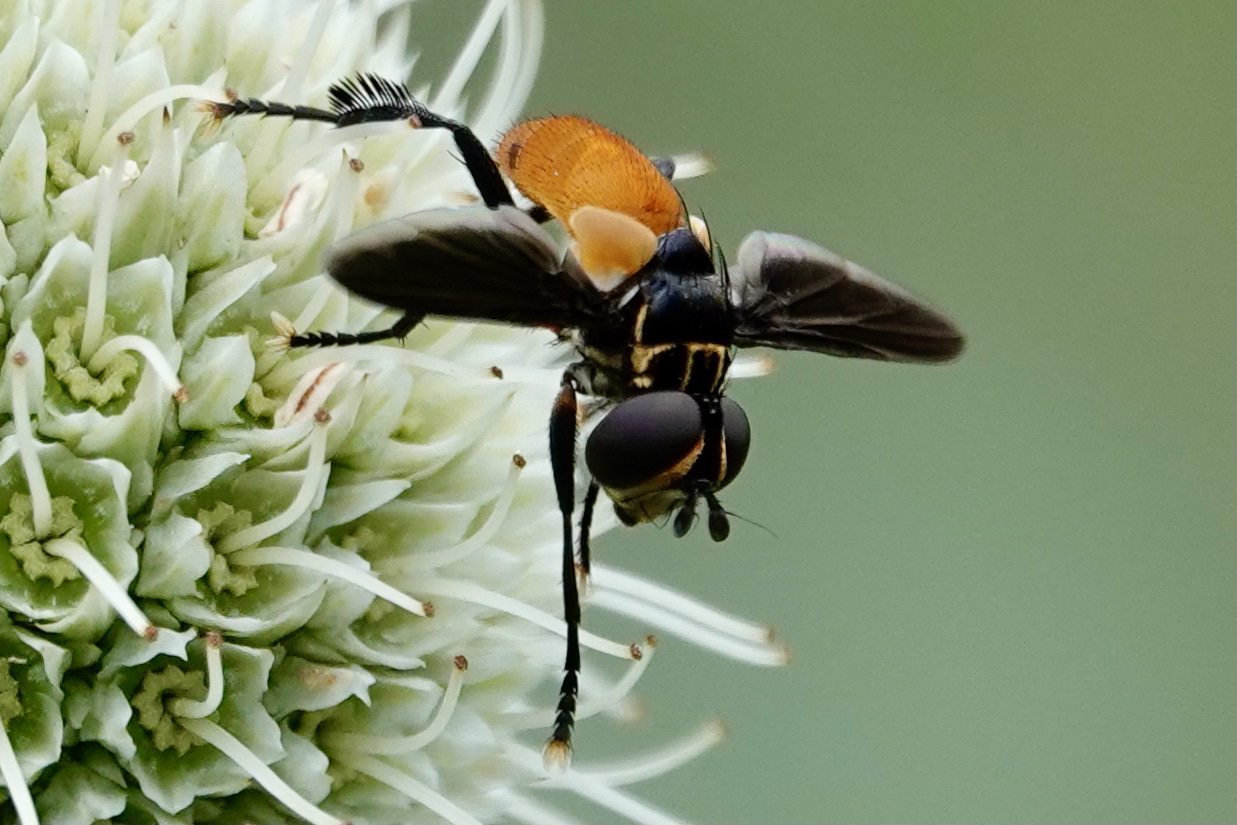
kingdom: Animalia
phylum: Arthropoda
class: Insecta
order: Diptera
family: Tachinidae
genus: Trichopoda
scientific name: Trichopoda pennipes
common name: Tachinid fly
